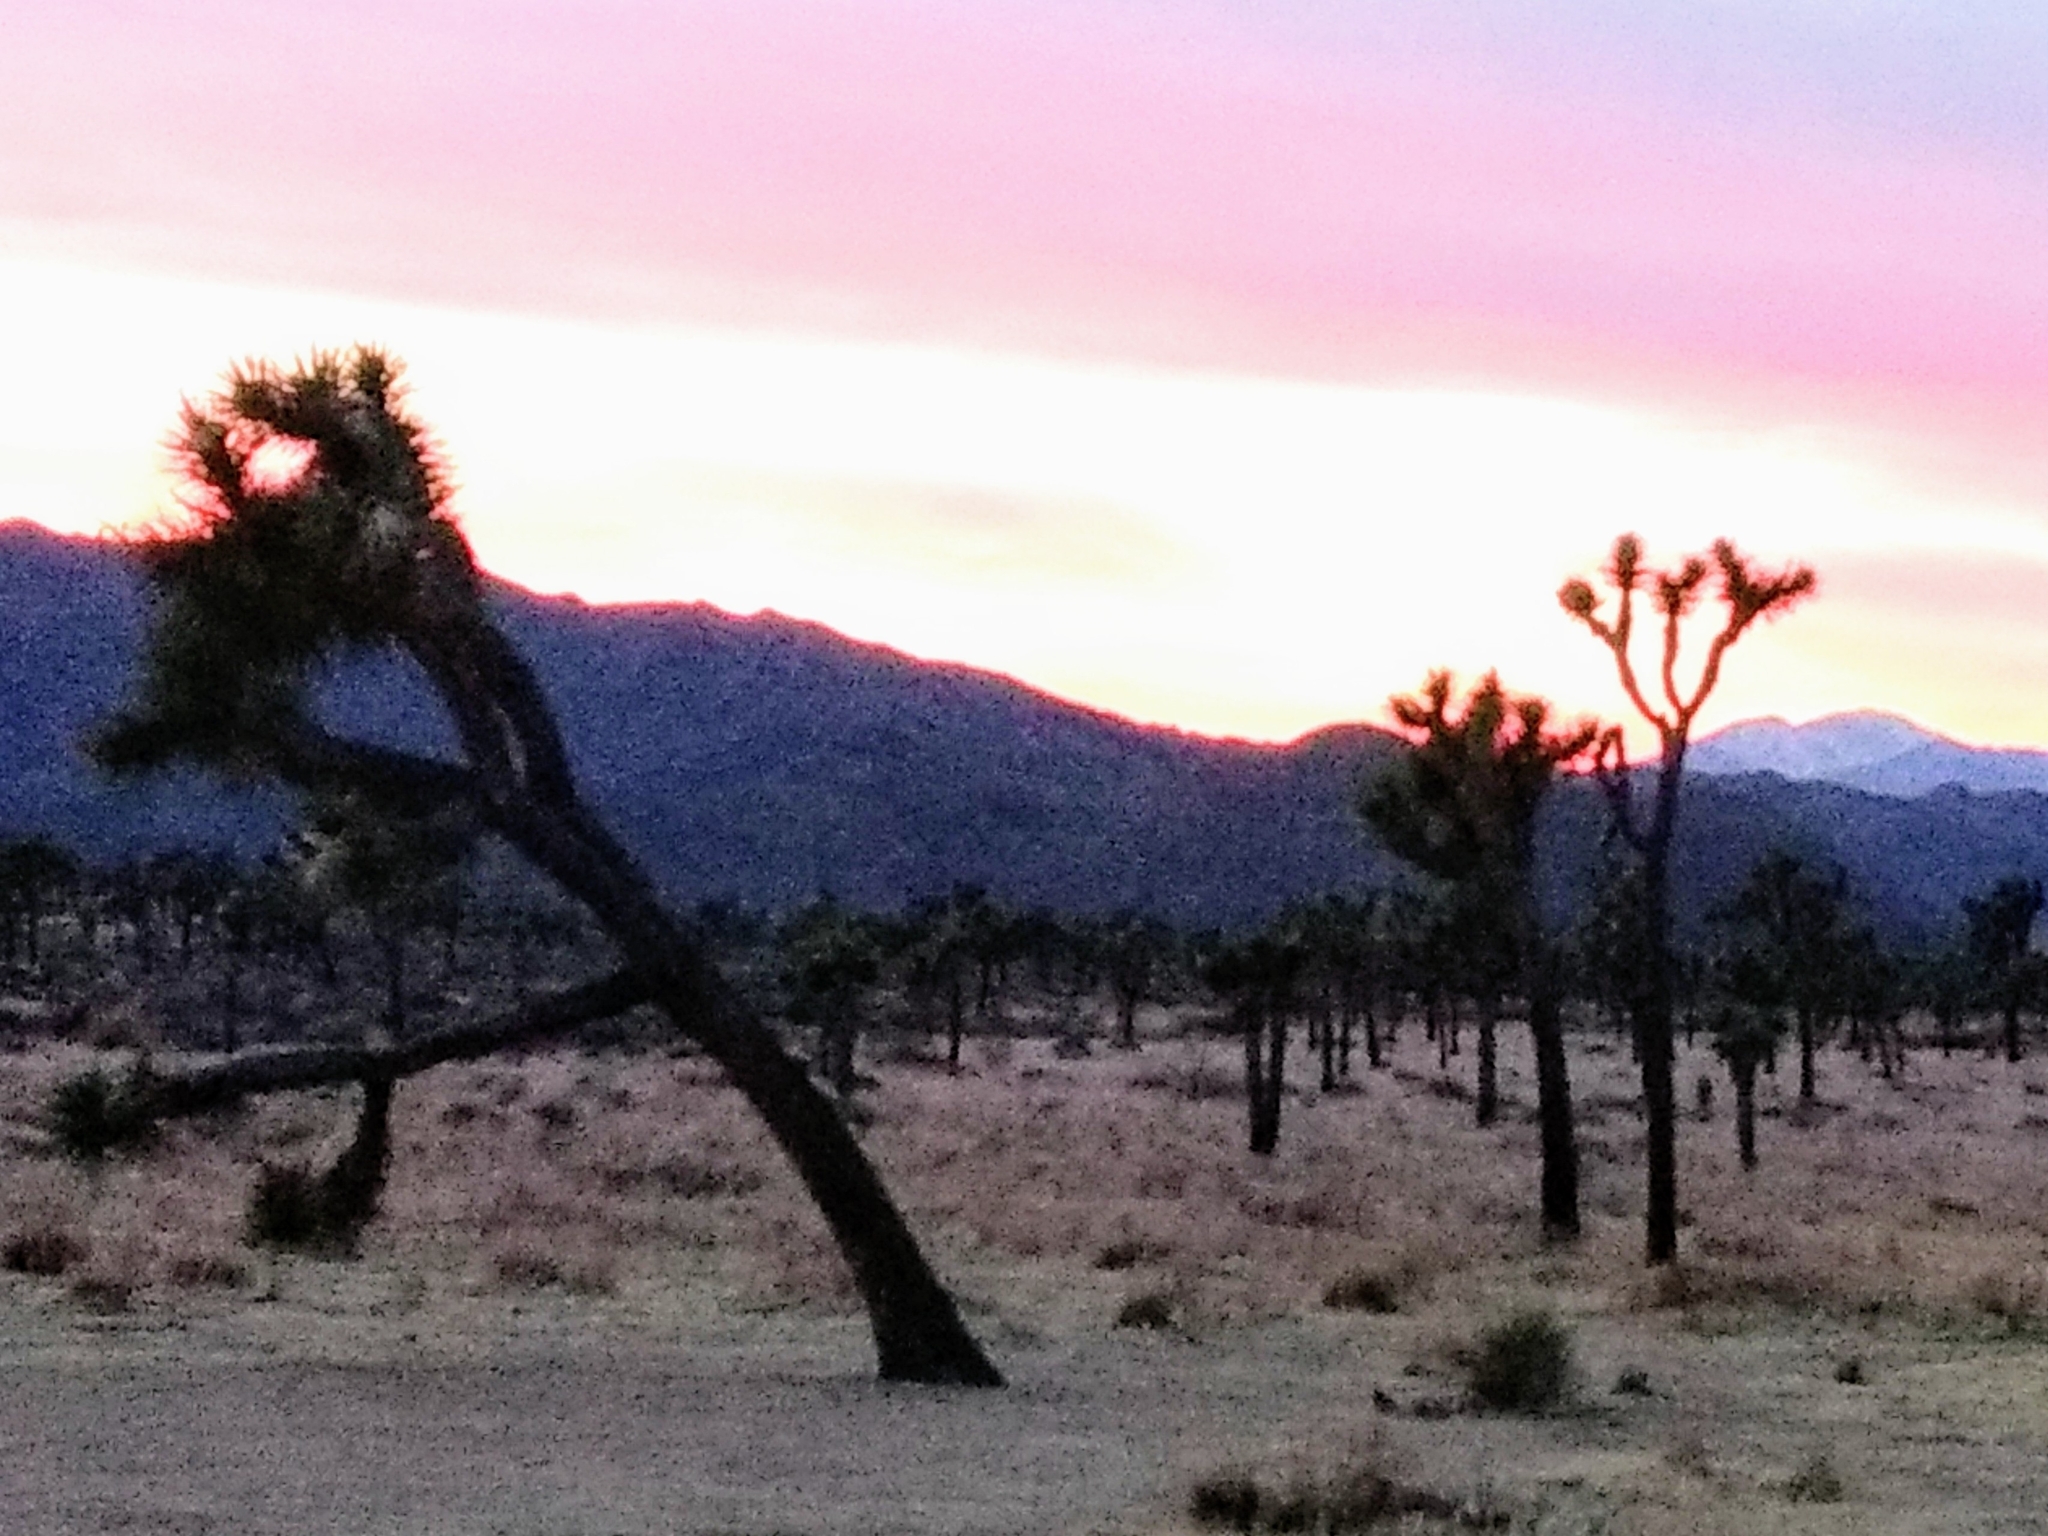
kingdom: Plantae
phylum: Tracheophyta
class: Liliopsida
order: Asparagales
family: Asparagaceae
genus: Yucca
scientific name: Yucca brevifolia
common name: Joshua tree
